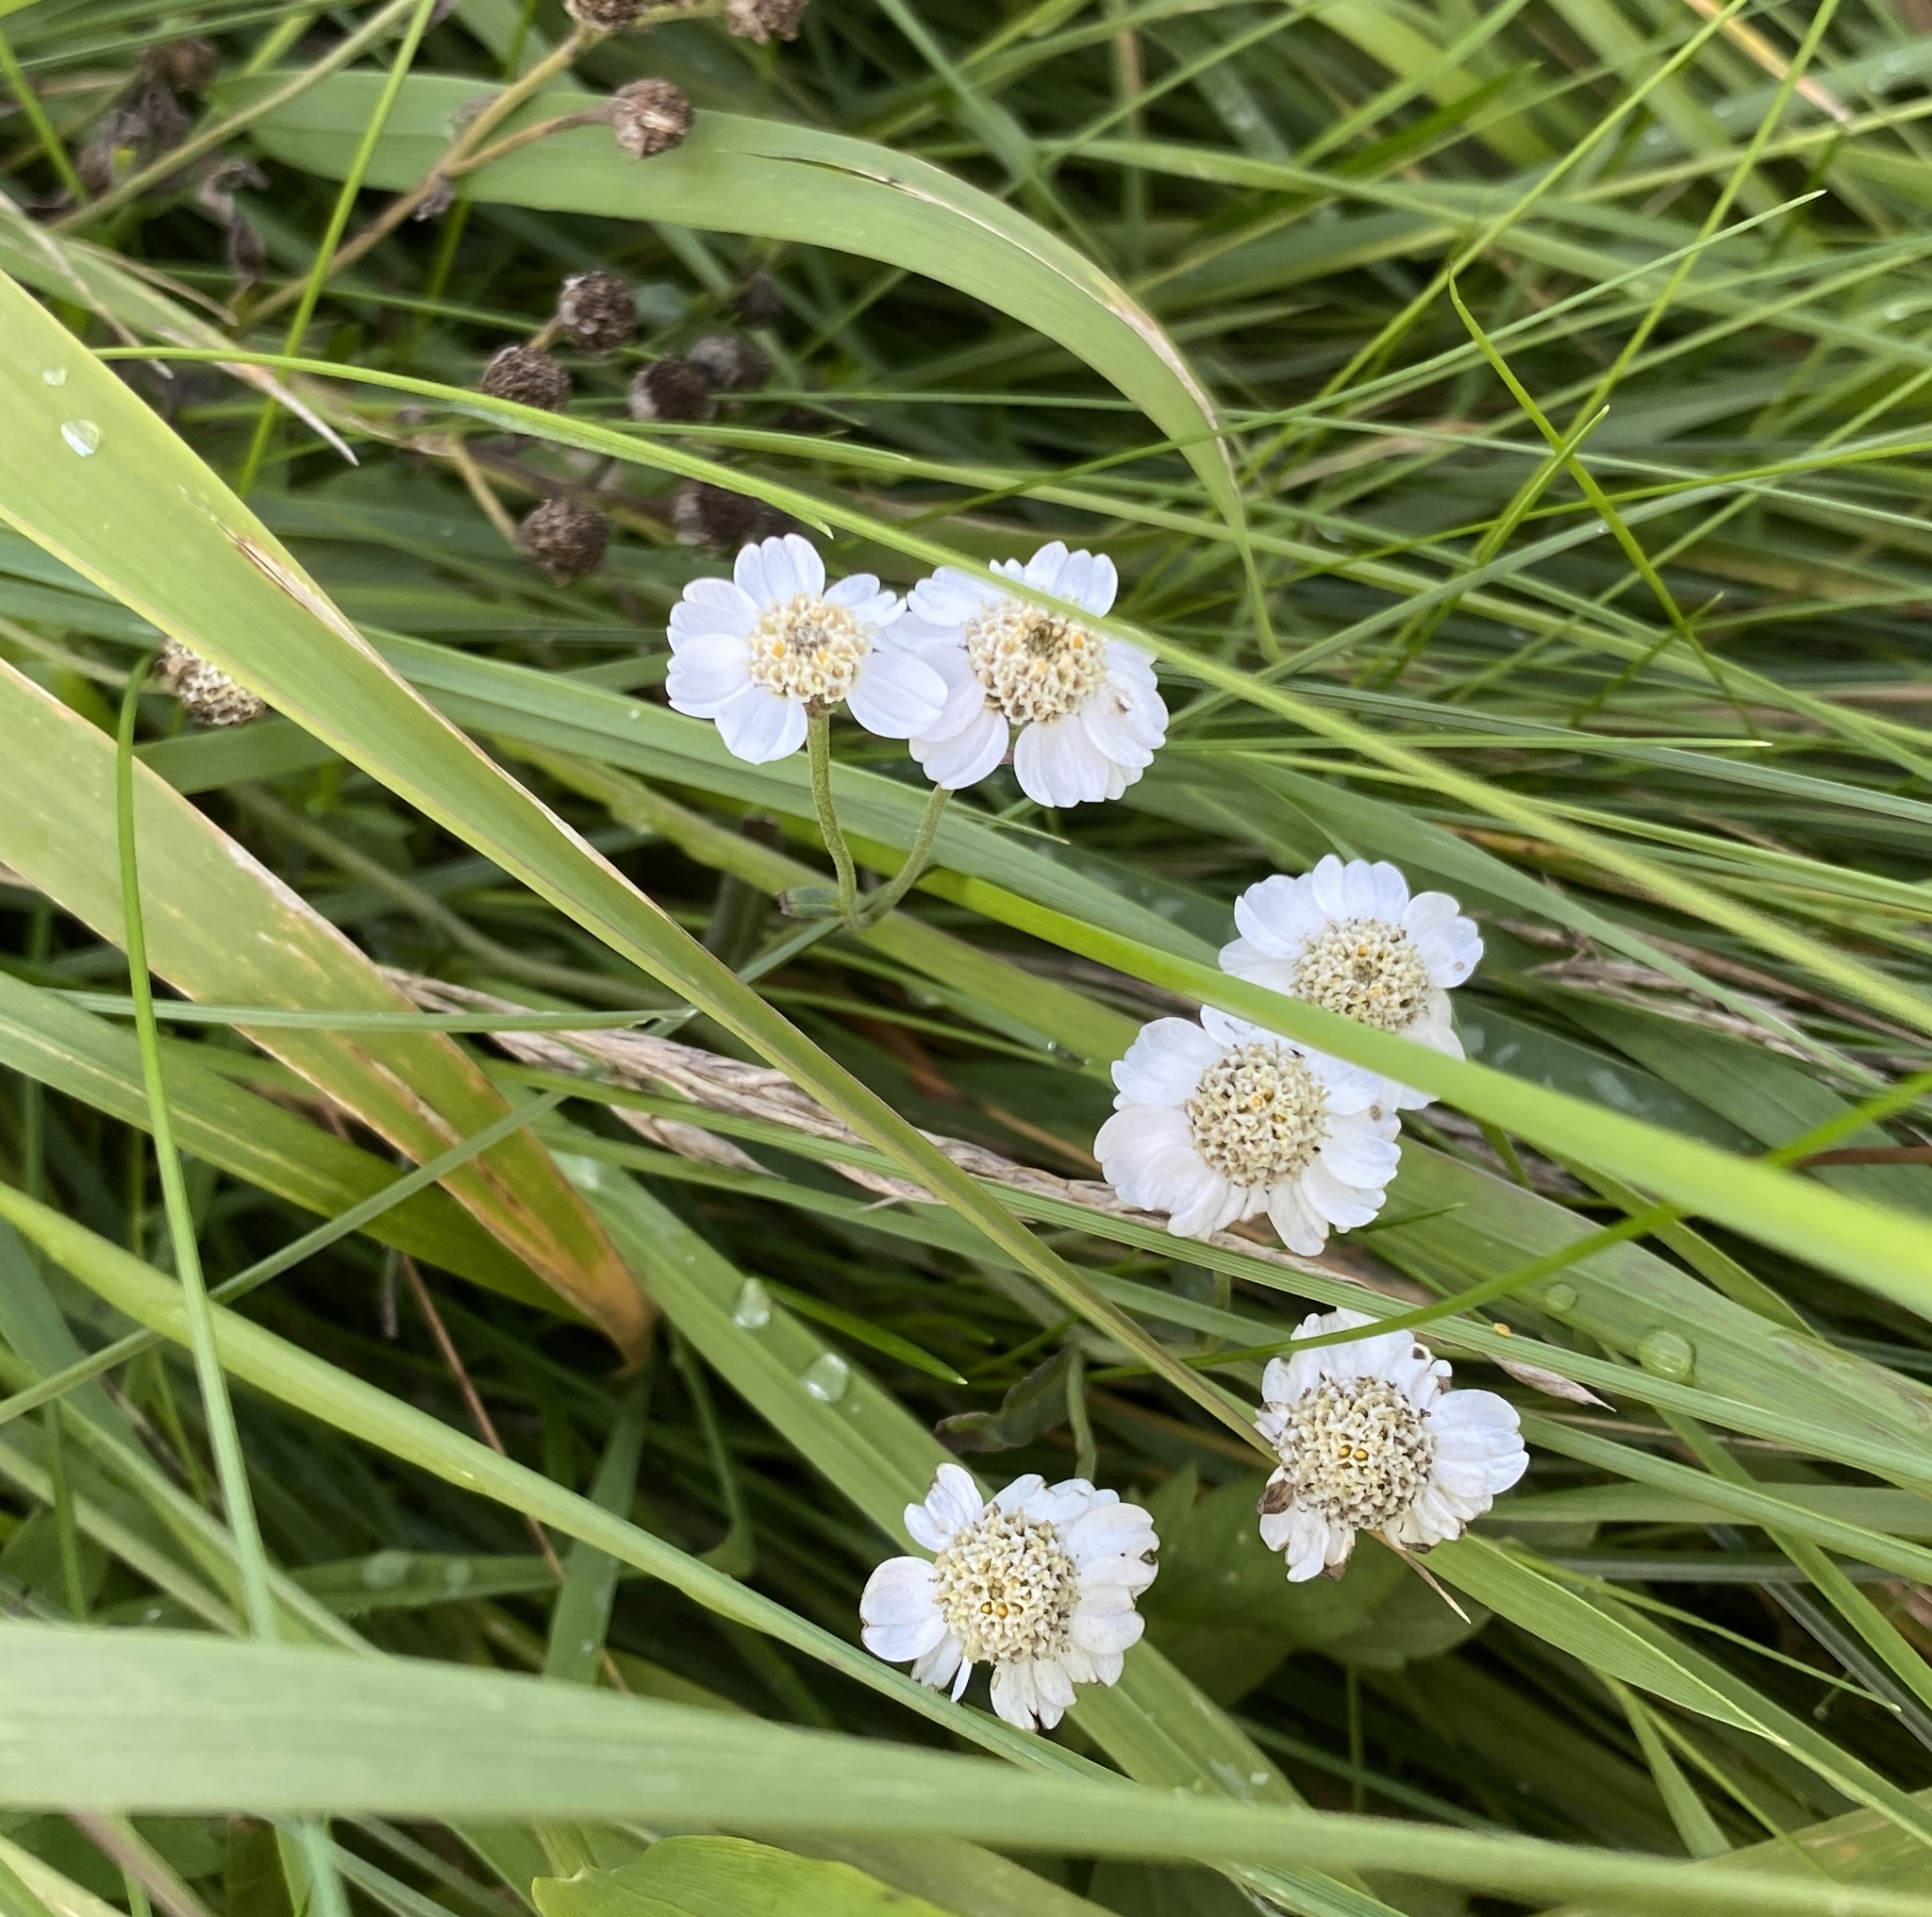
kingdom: Plantae
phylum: Tracheophyta
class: Magnoliopsida
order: Asterales
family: Asteraceae
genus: Achillea
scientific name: Achillea ptarmica
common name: Sneezeweed
